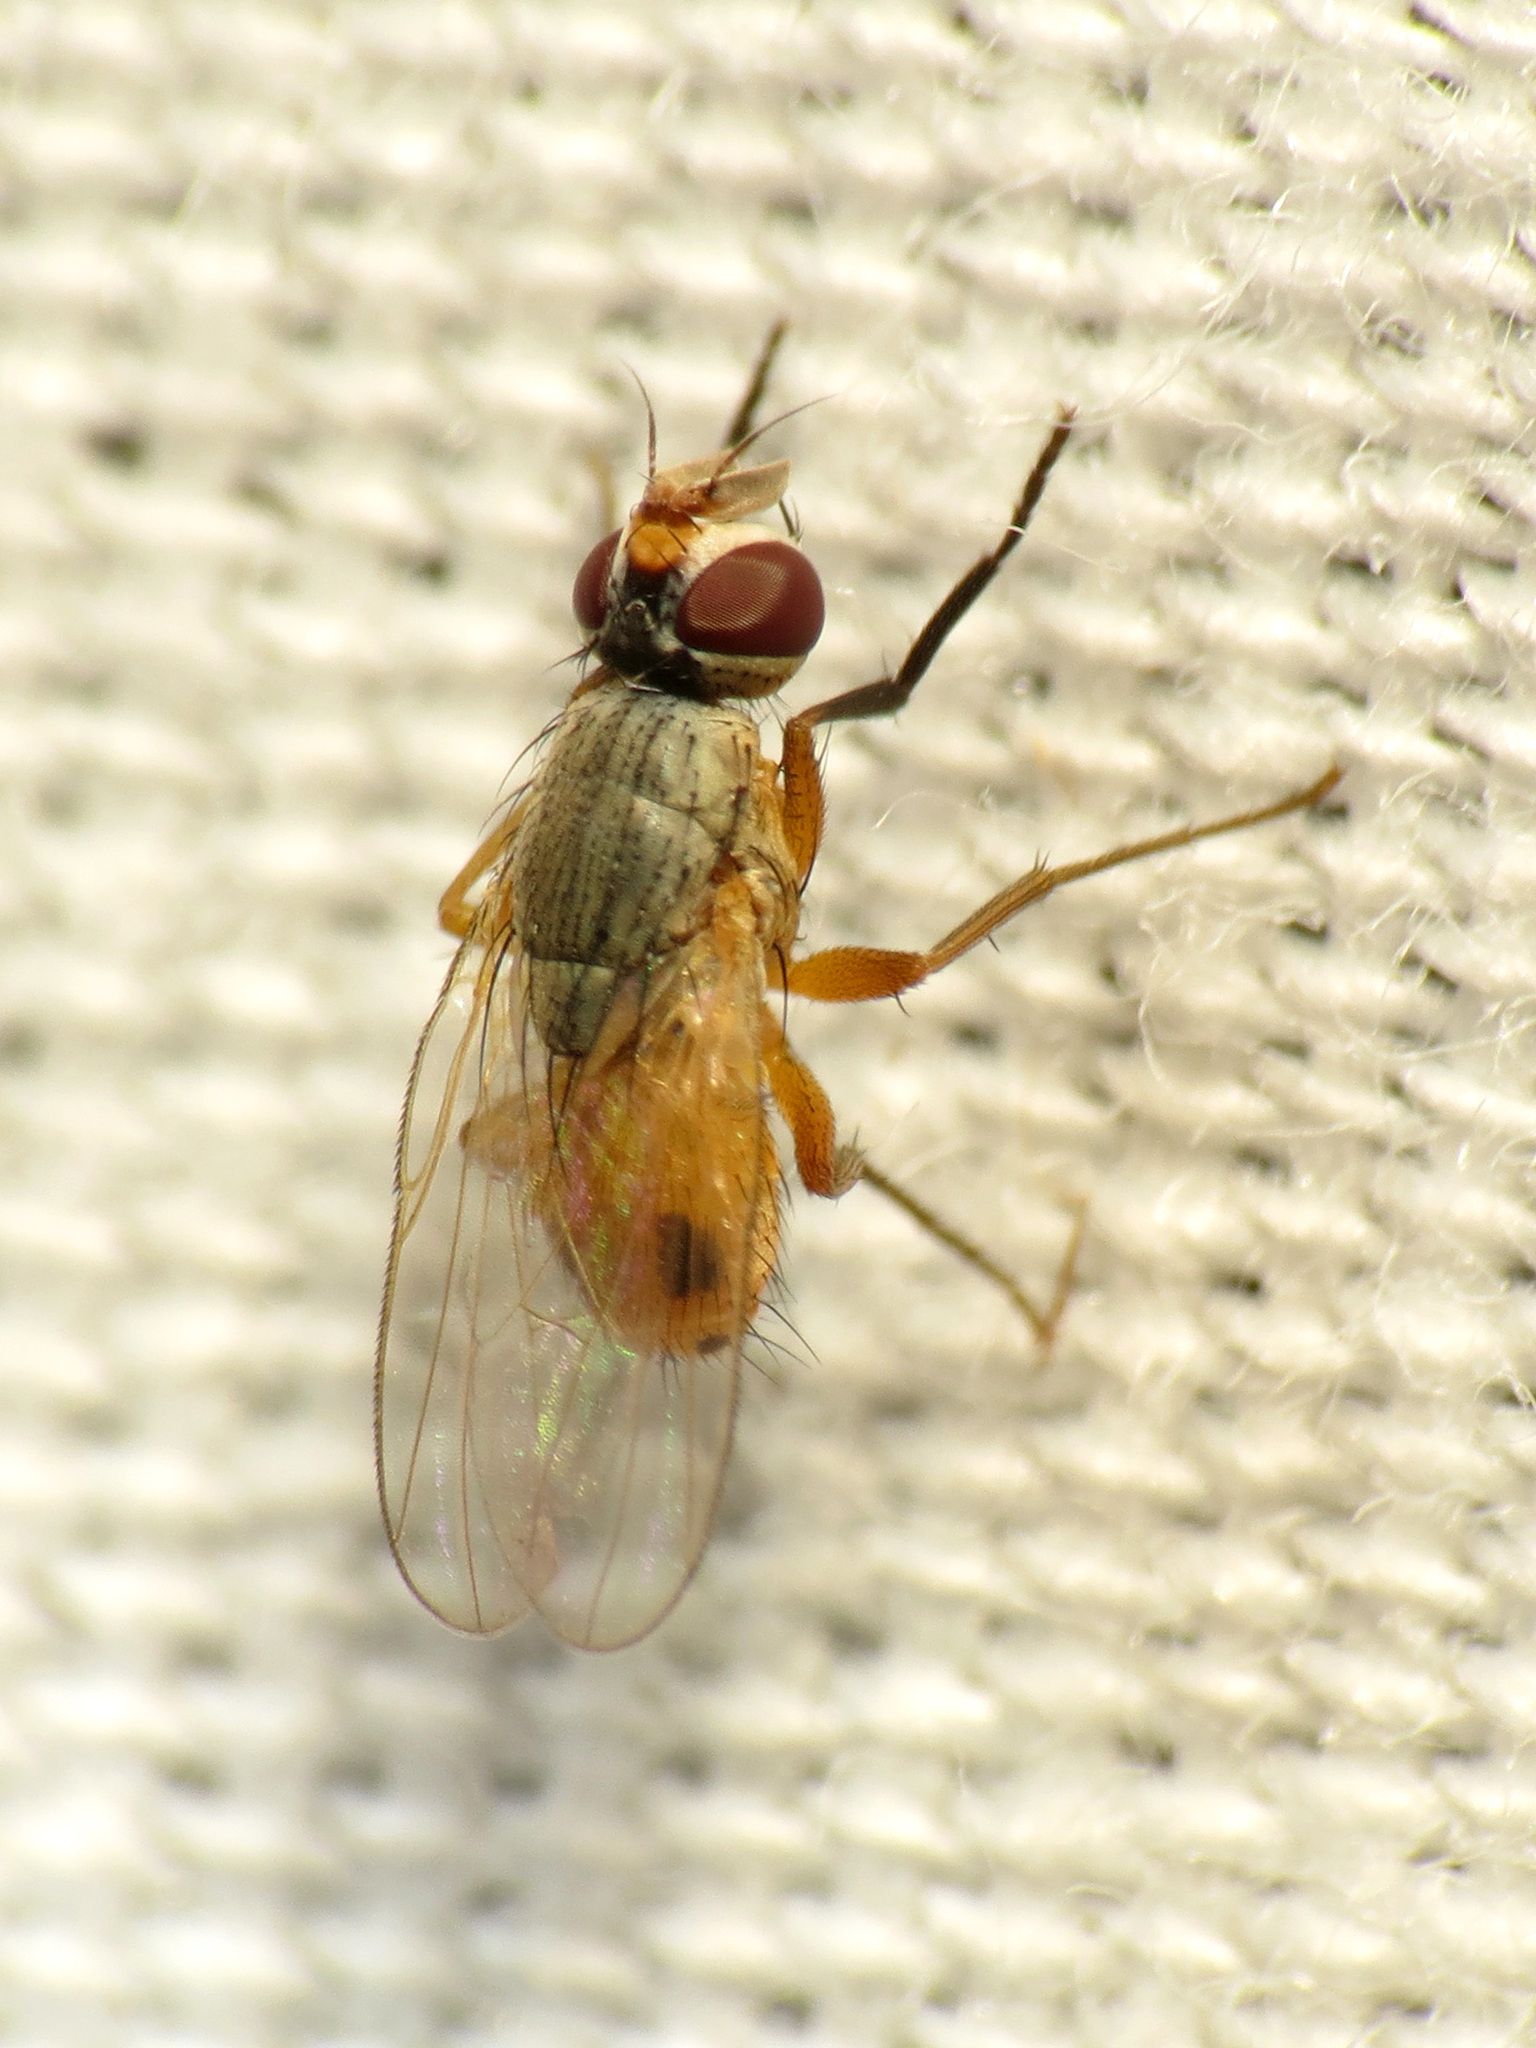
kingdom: Animalia
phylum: Arthropoda
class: Insecta
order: Diptera
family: Muscidae
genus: Atherigona
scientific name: Atherigona reversura
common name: Bermudagrass stem maggot
